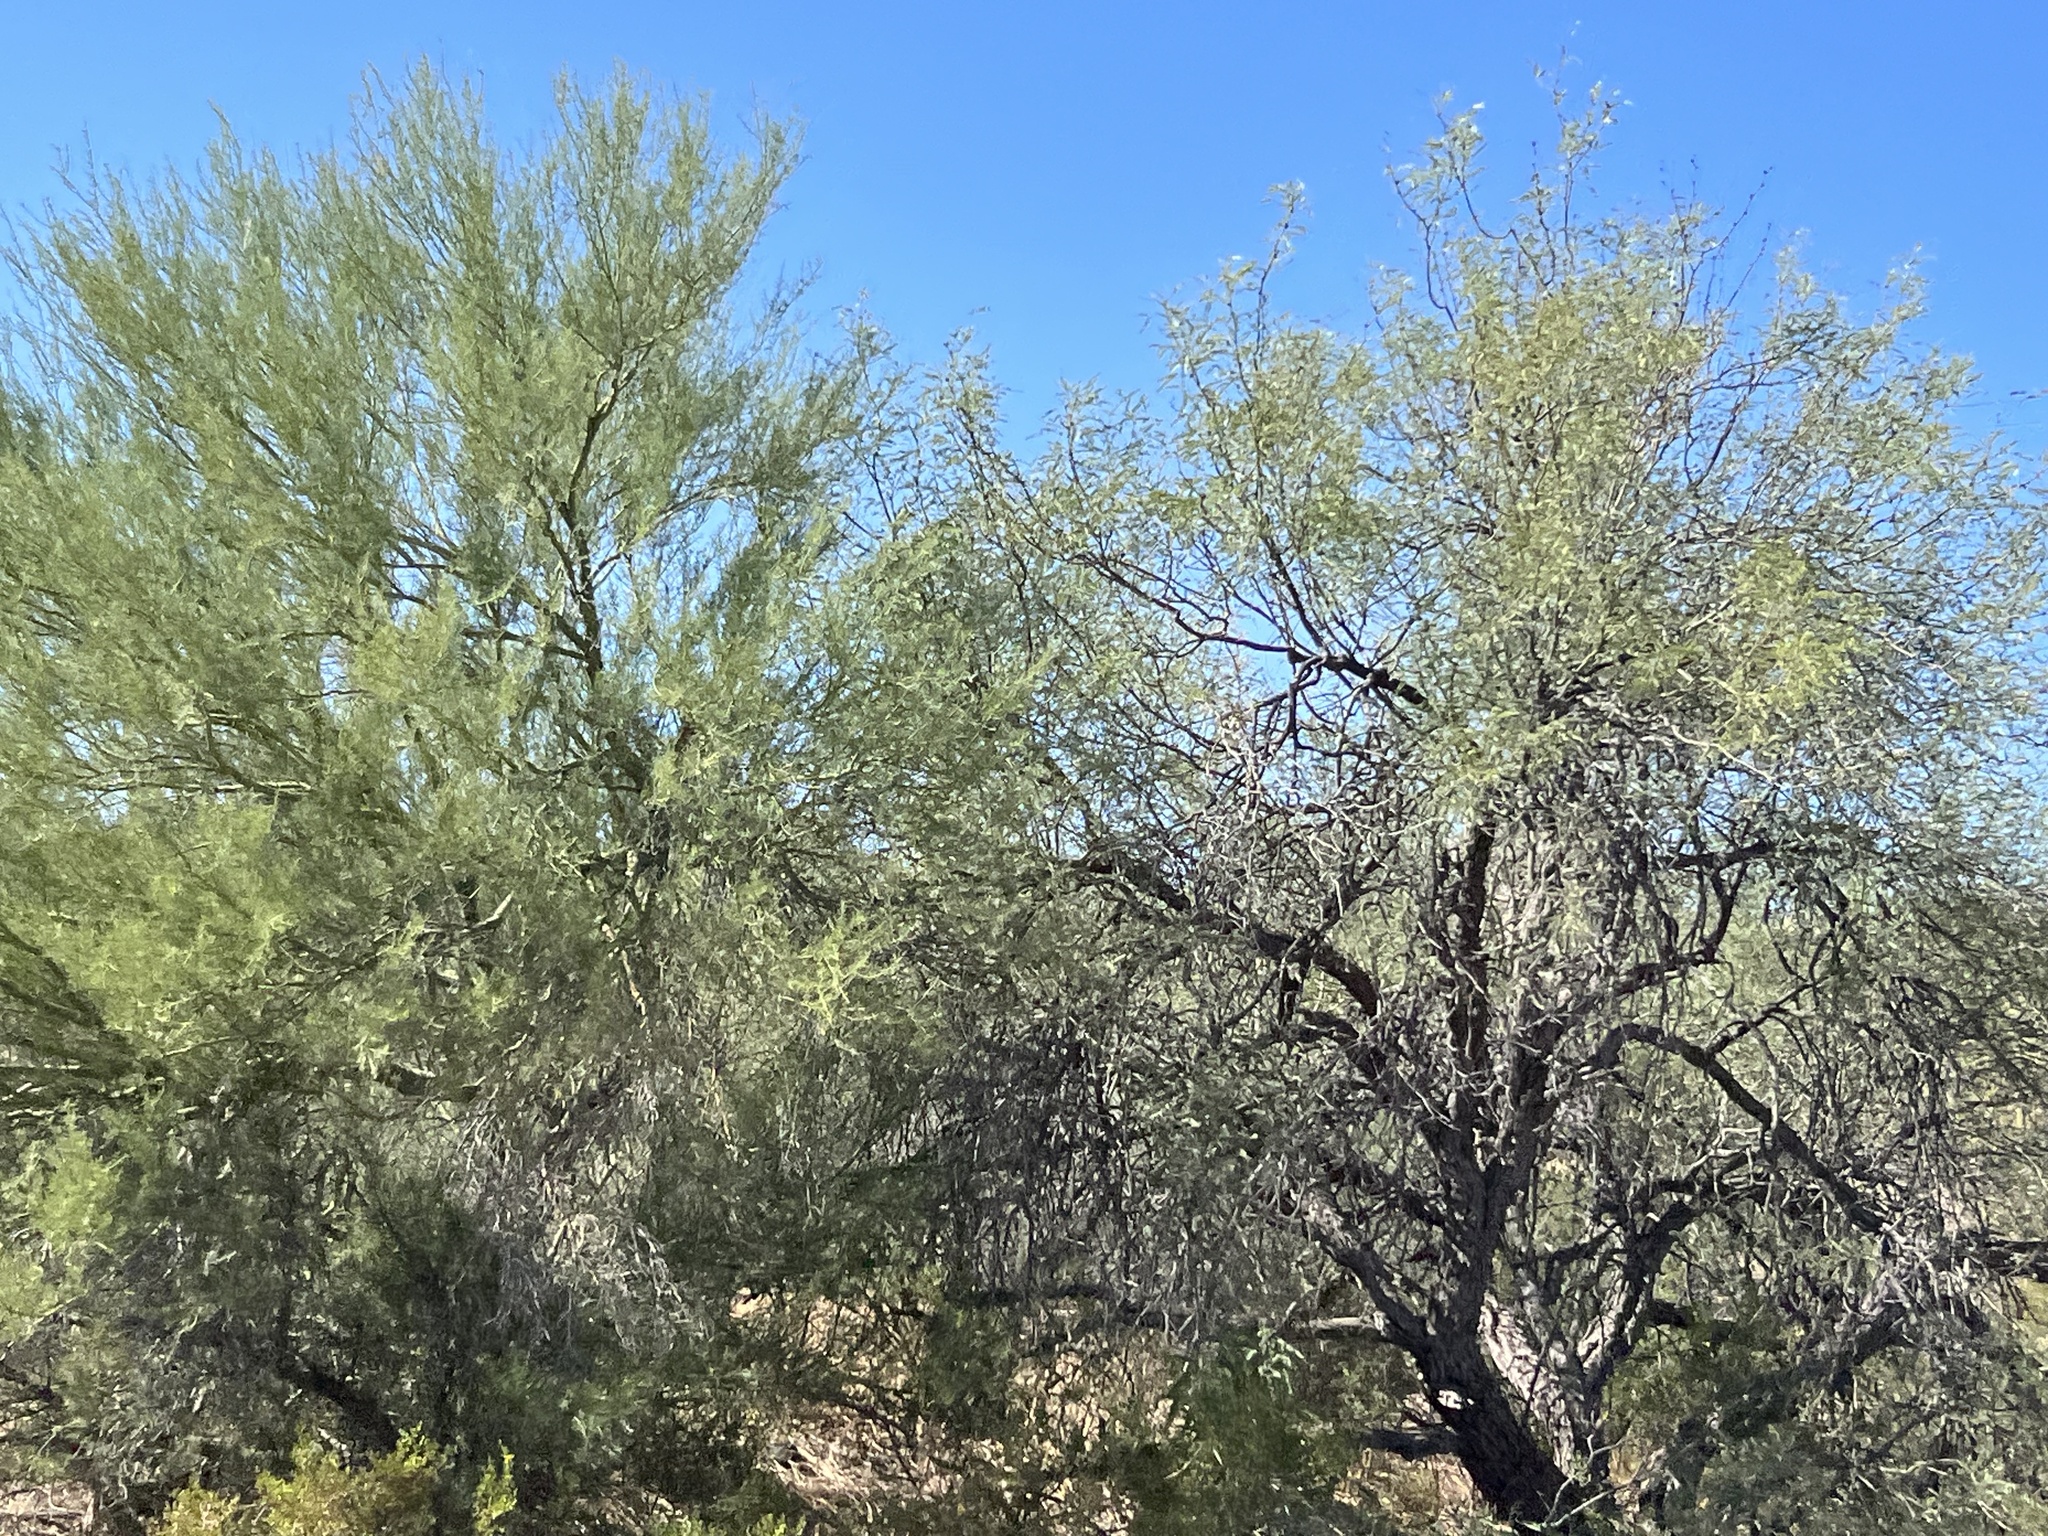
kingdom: Plantae
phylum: Tracheophyta
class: Magnoliopsida
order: Fabales
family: Fabaceae
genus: Prosopis
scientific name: Prosopis velutina
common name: Velvet mesquite
